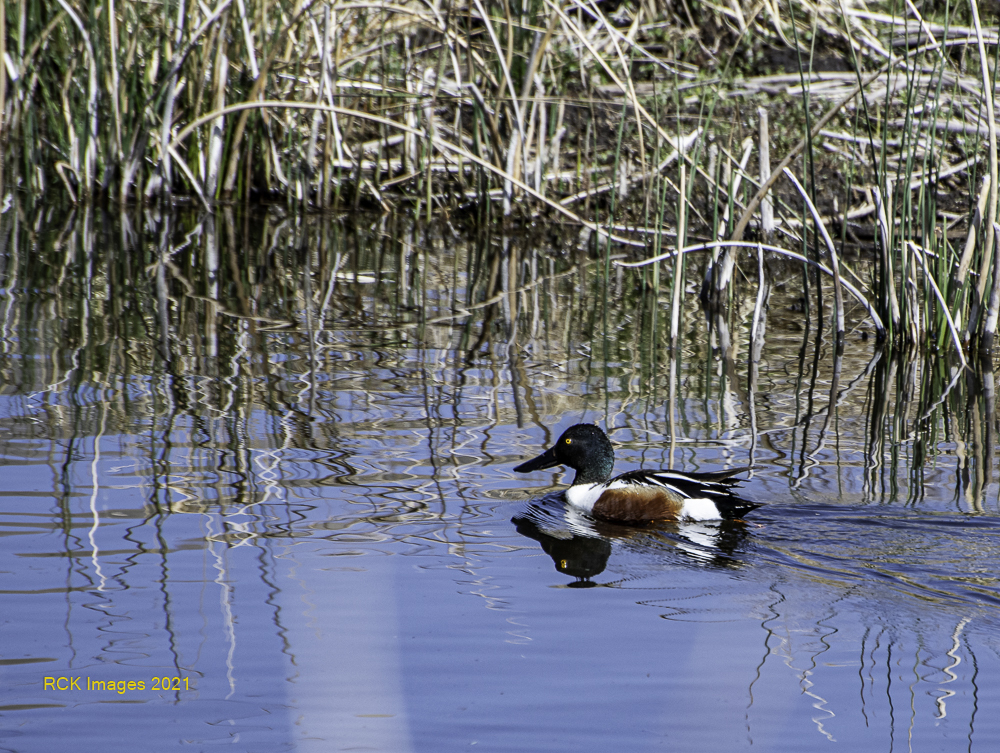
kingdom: Animalia
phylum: Chordata
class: Aves
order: Anseriformes
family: Anatidae
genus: Spatula
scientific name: Spatula clypeata
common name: Northern shoveler
